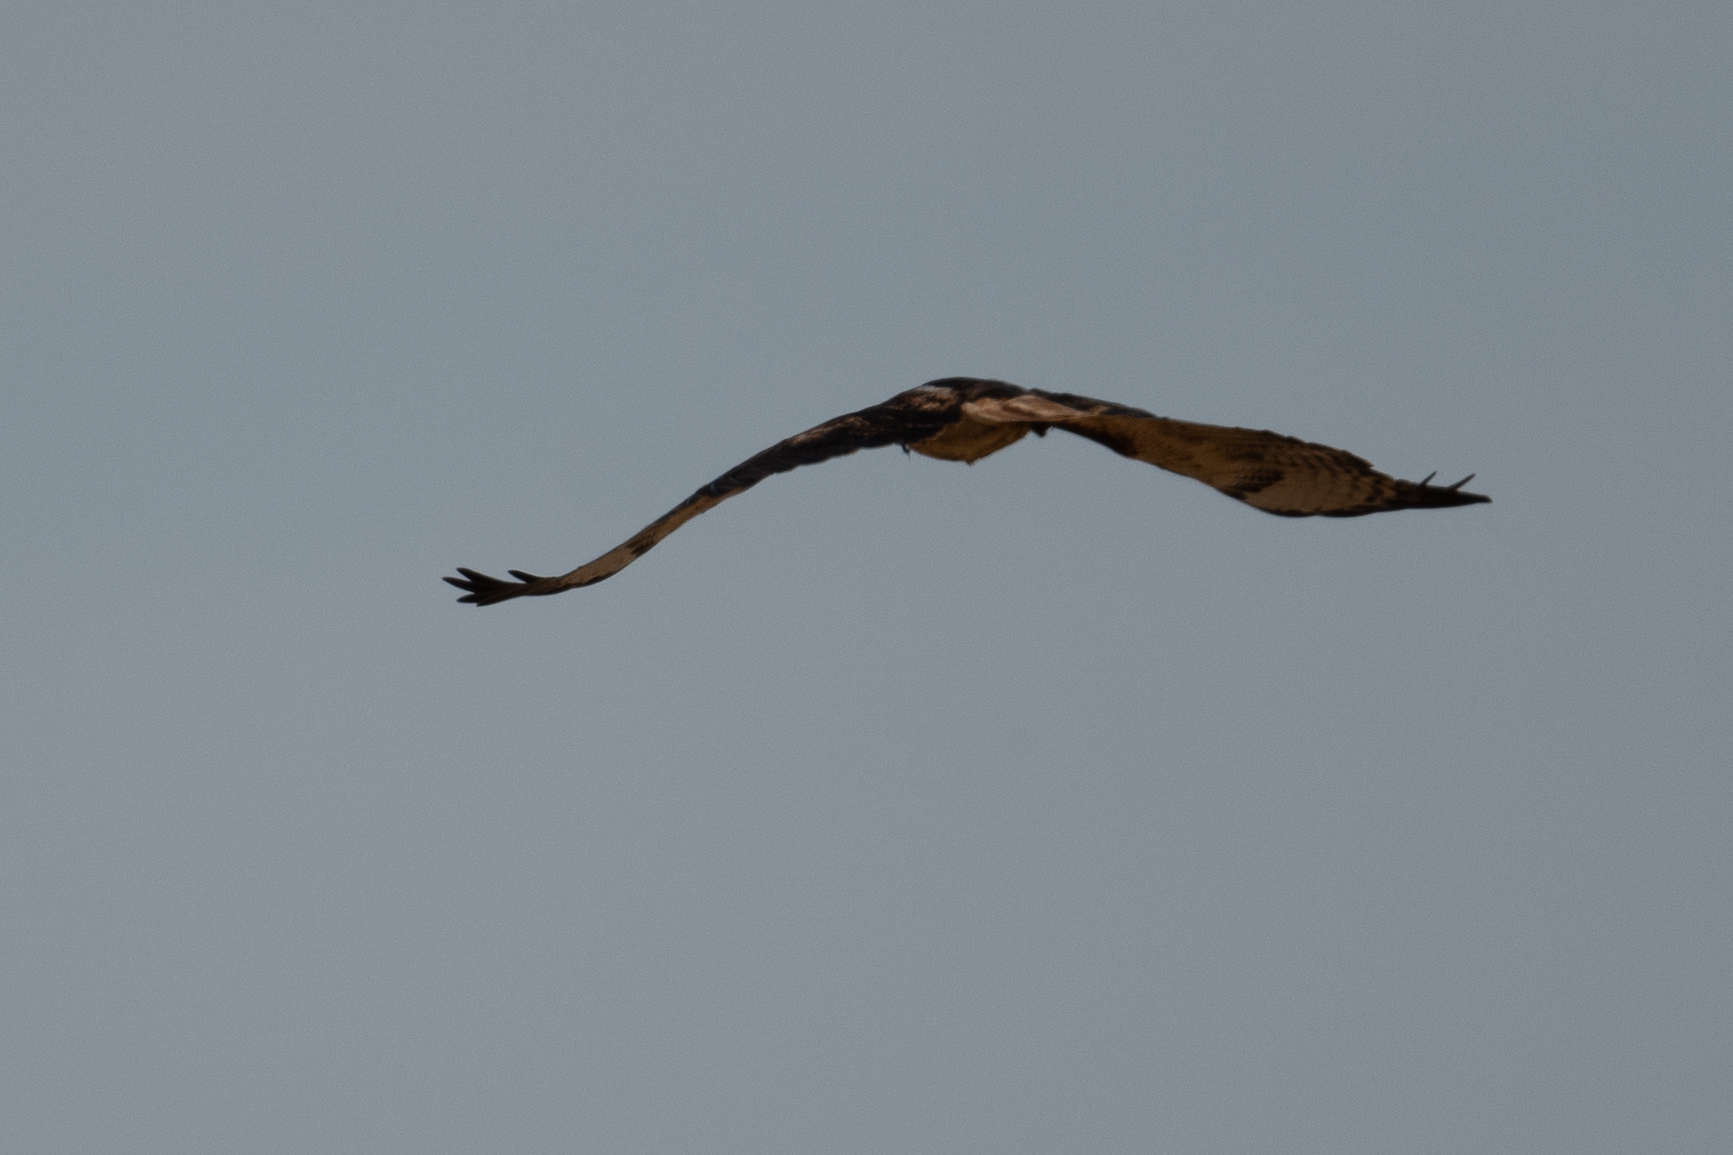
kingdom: Animalia
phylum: Chordata
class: Aves
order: Accipitriformes
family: Accipitridae
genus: Buteo
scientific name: Buteo jamaicensis
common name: Red-tailed hawk
